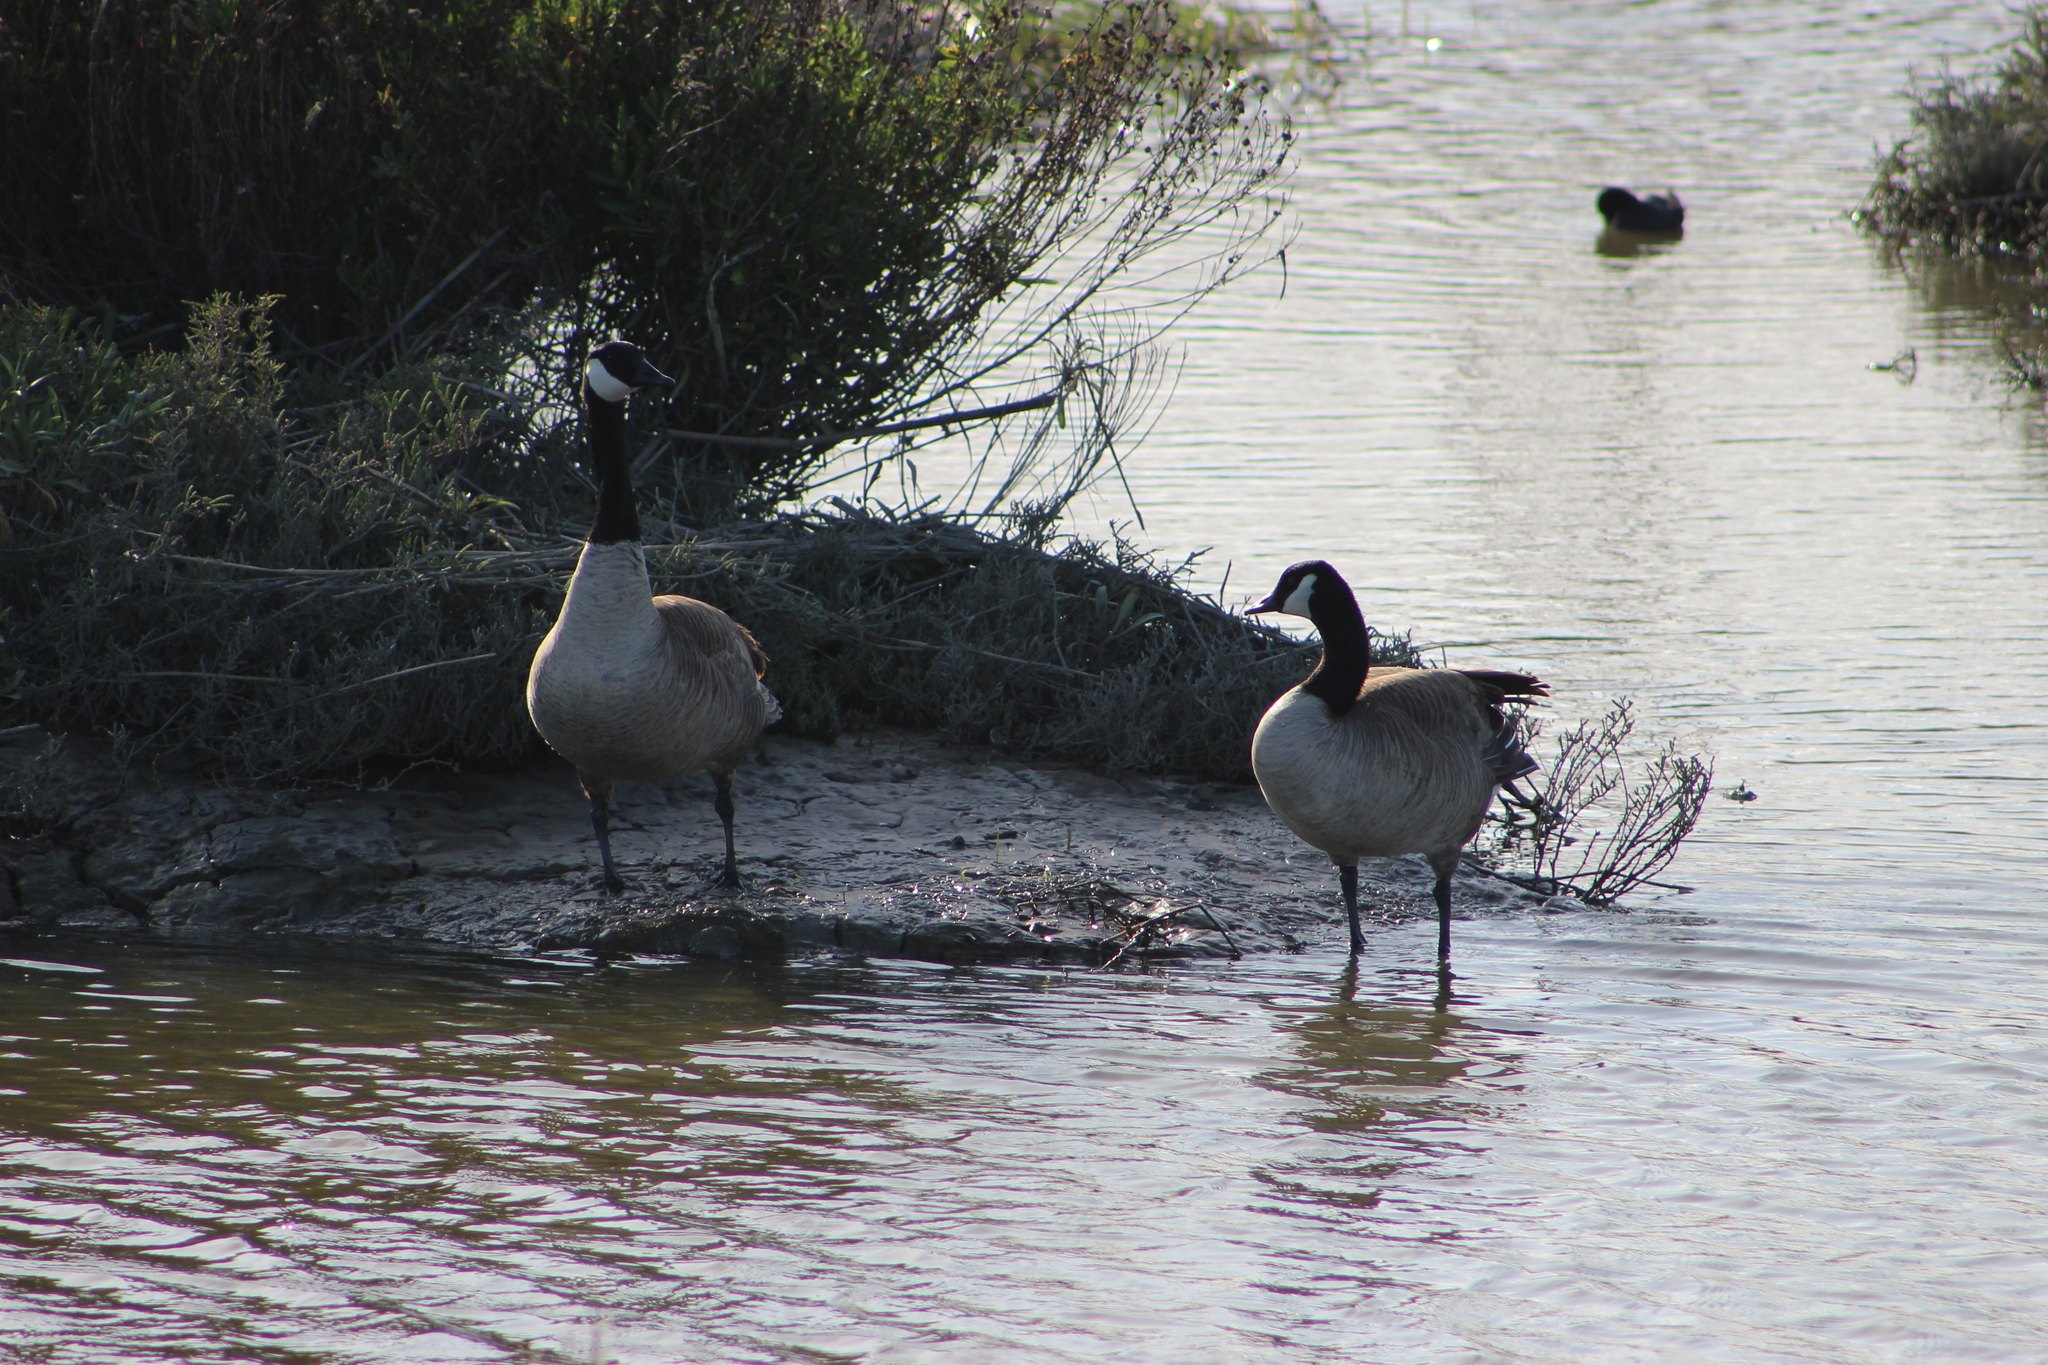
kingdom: Animalia
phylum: Chordata
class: Aves
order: Anseriformes
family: Anatidae
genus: Branta
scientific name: Branta canadensis
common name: Canada goose
